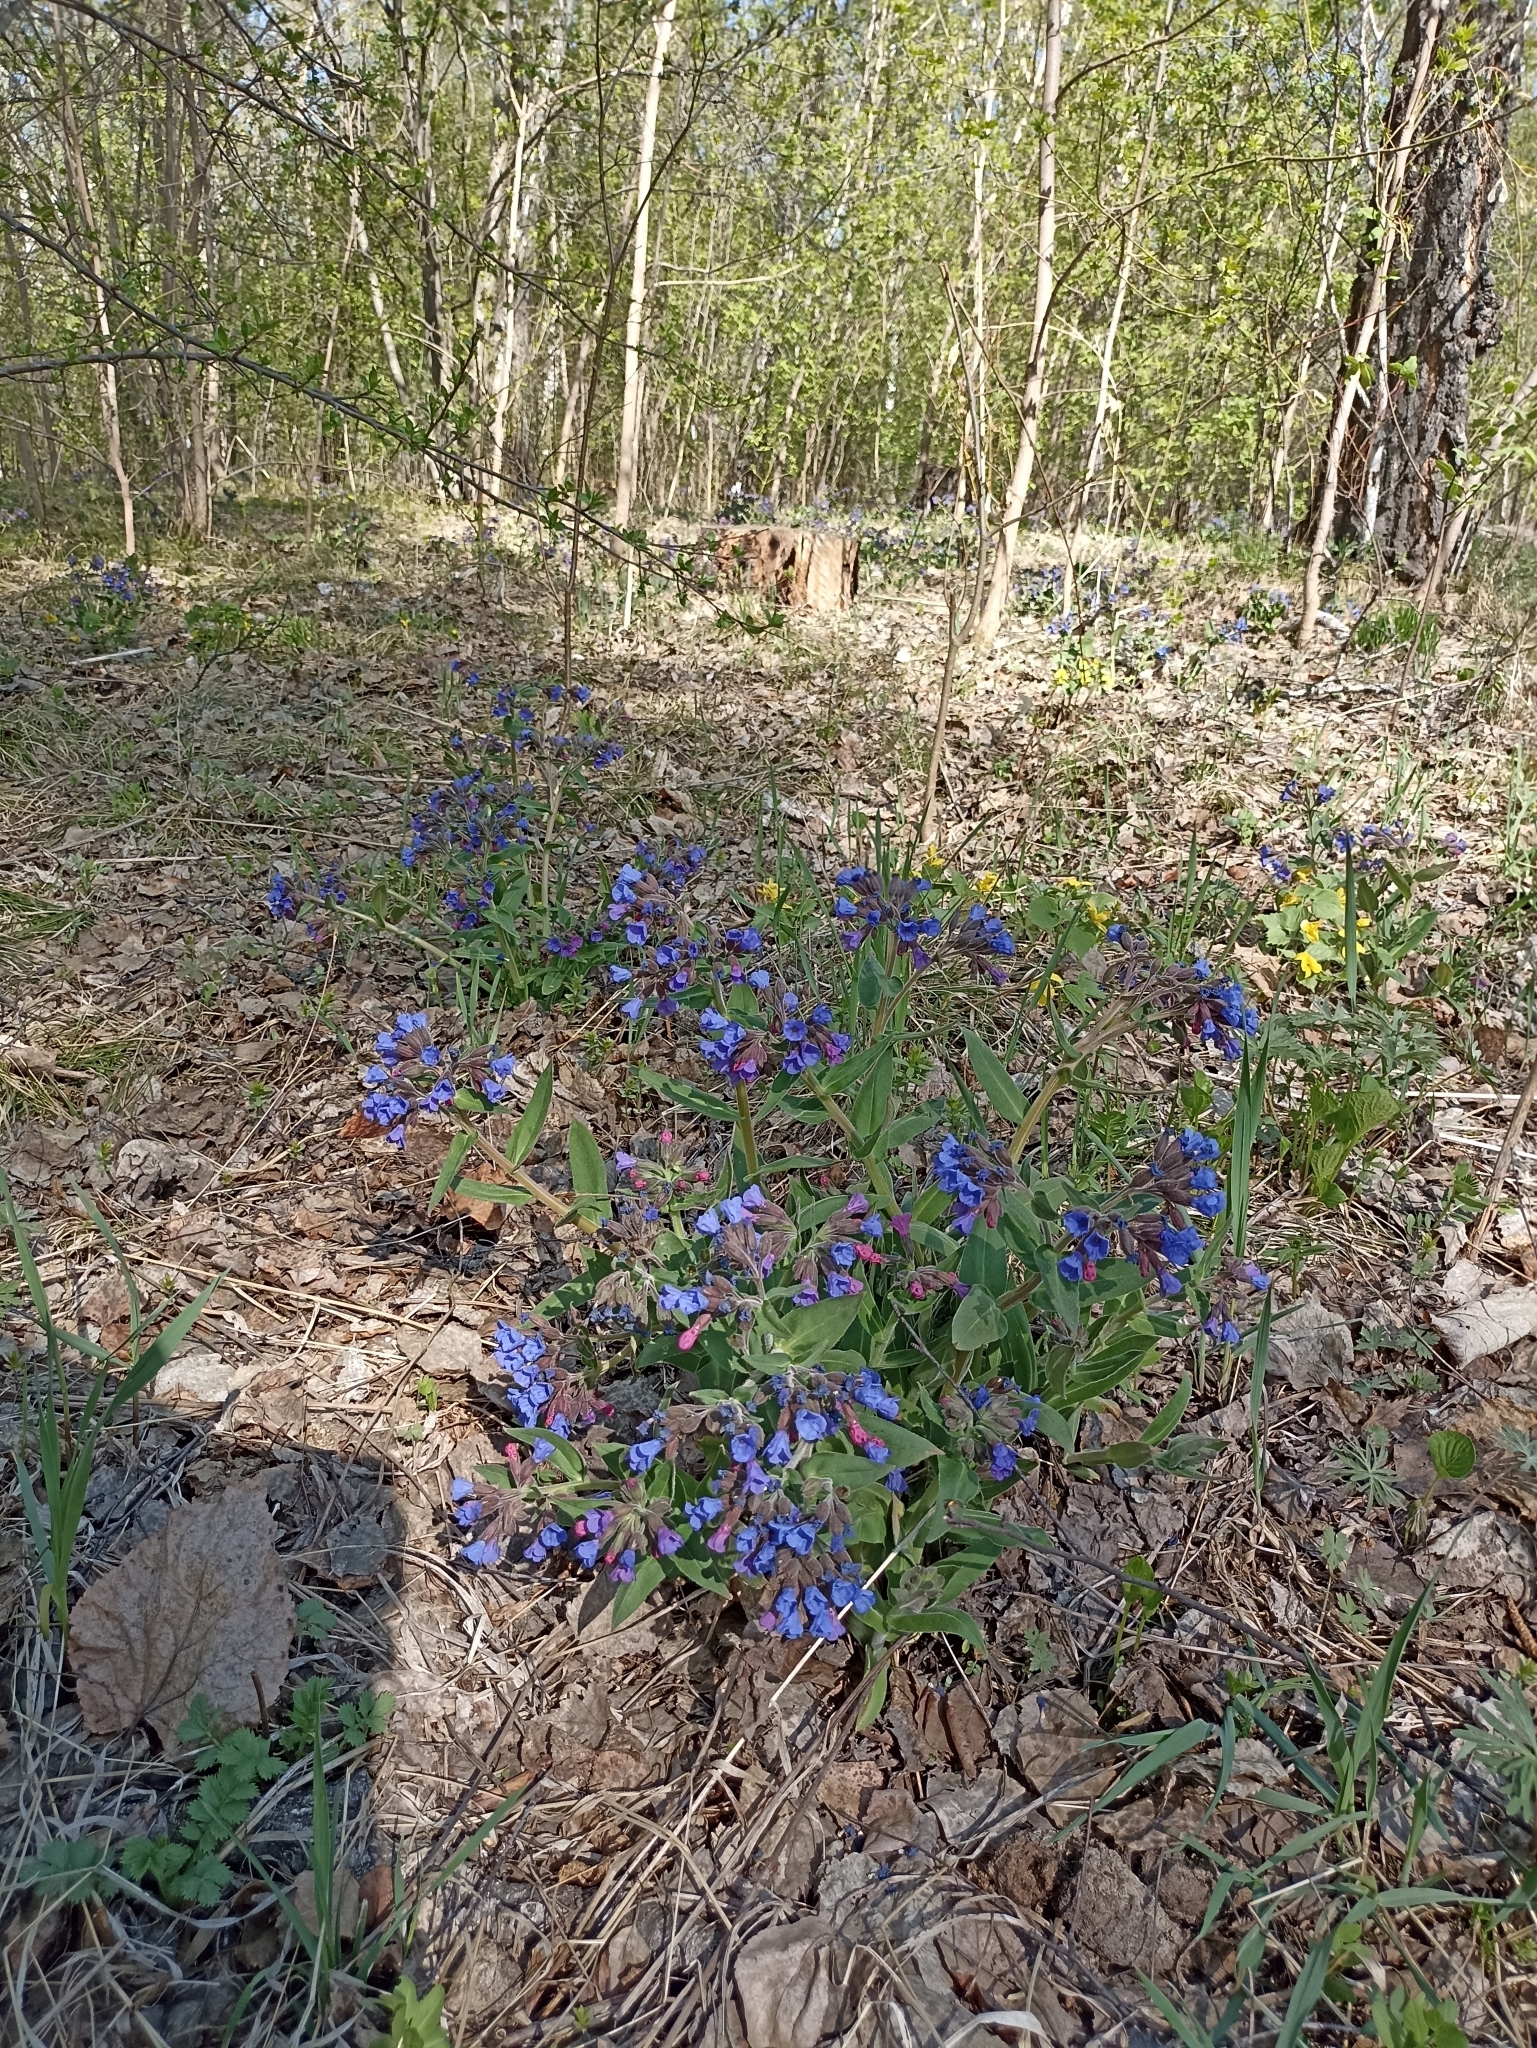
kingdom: Plantae
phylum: Tracheophyta
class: Magnoliopsida
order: Boraginales
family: Boraginaceae
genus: Pulmonaria
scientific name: Pulmonaria mollis
